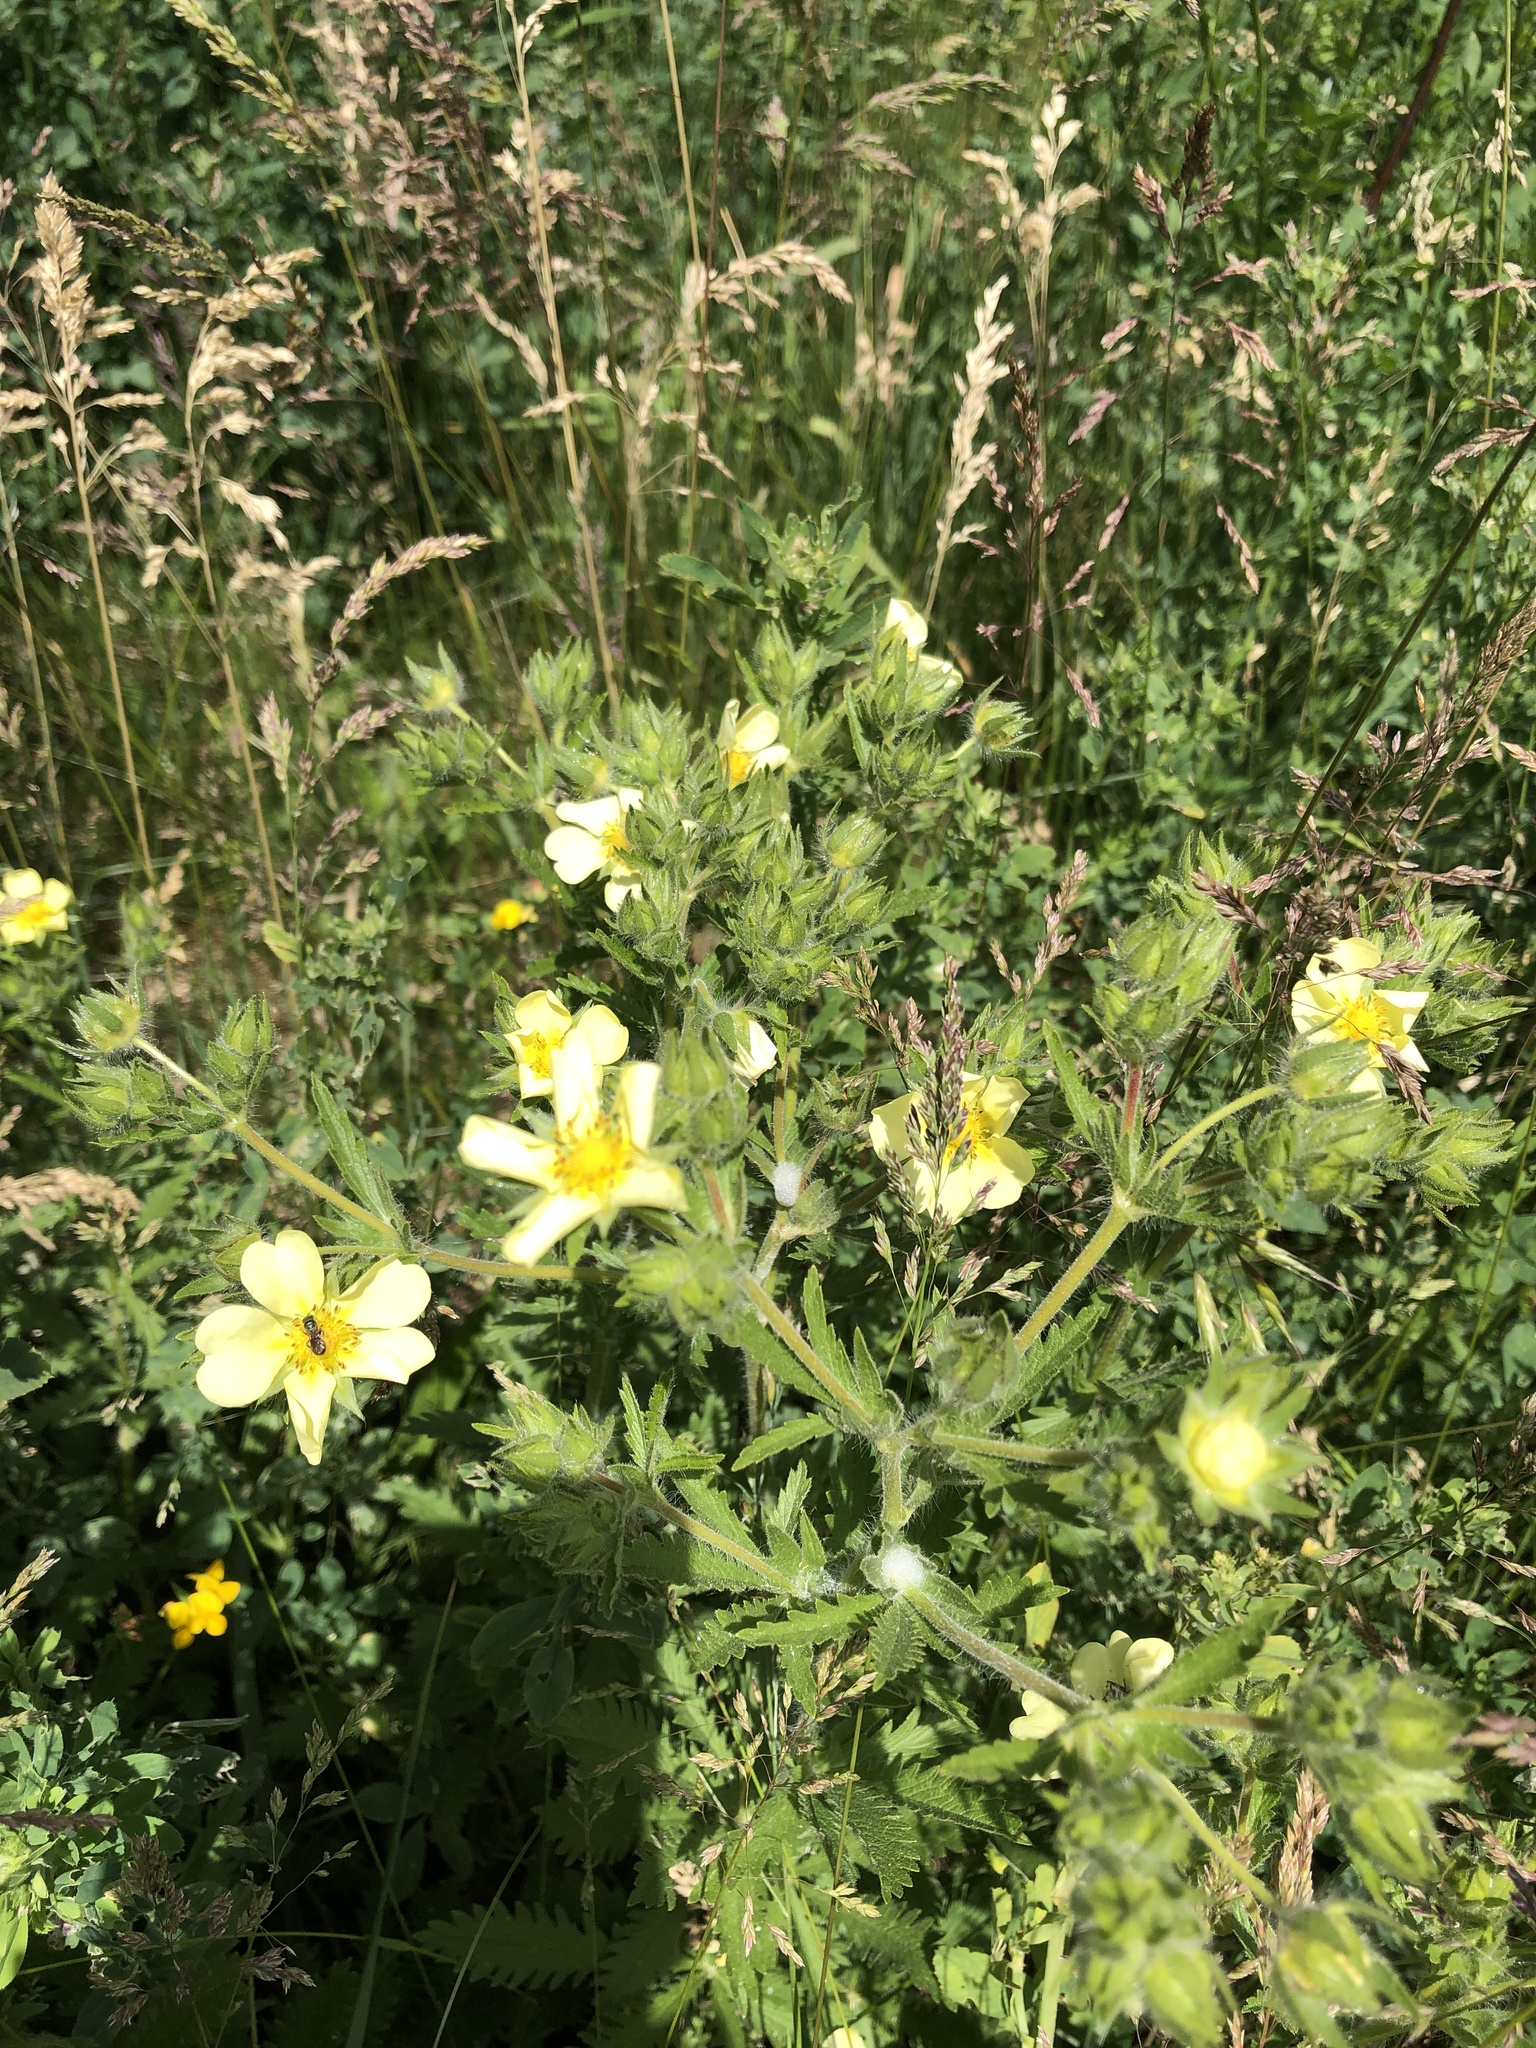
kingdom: Plantae
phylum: Tracheophyta
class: Magnoliopsida
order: Rosales
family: Rosaceae
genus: Potentilla
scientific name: Potentilla recta
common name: Sulphur cinquefoil
